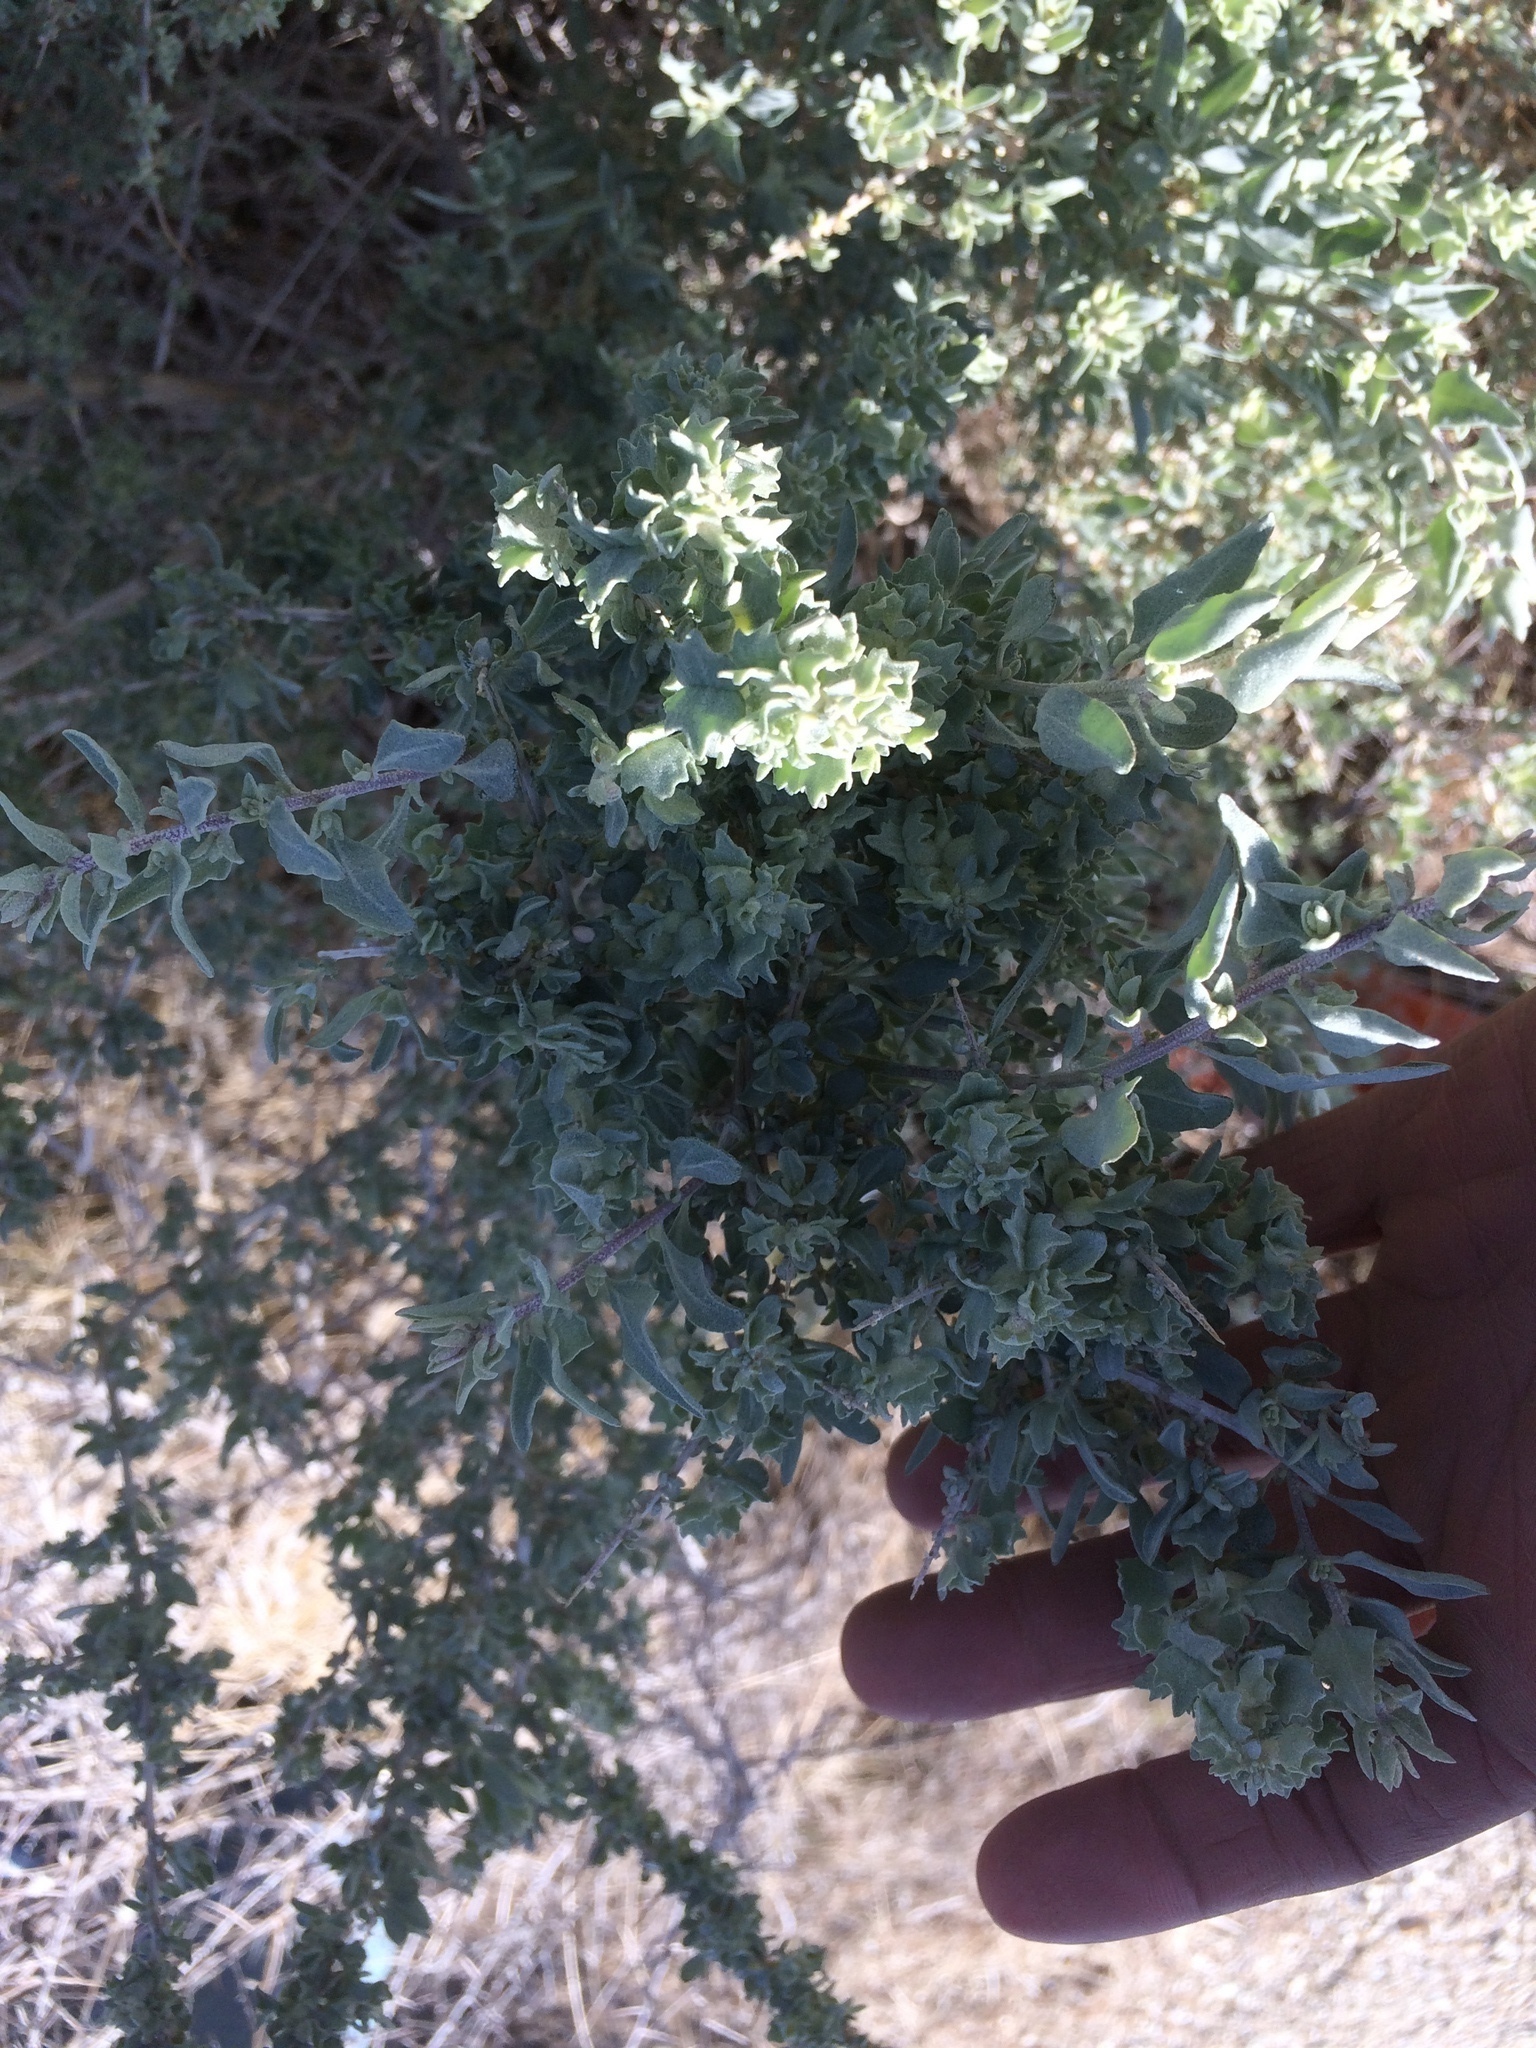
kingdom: Plantae
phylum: Tracheophyta
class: Magnoliopsida
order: Caryophyllales
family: Amaranthaceae
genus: Atriplex
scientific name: Atriplex spinifera
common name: Spiny saltbush
